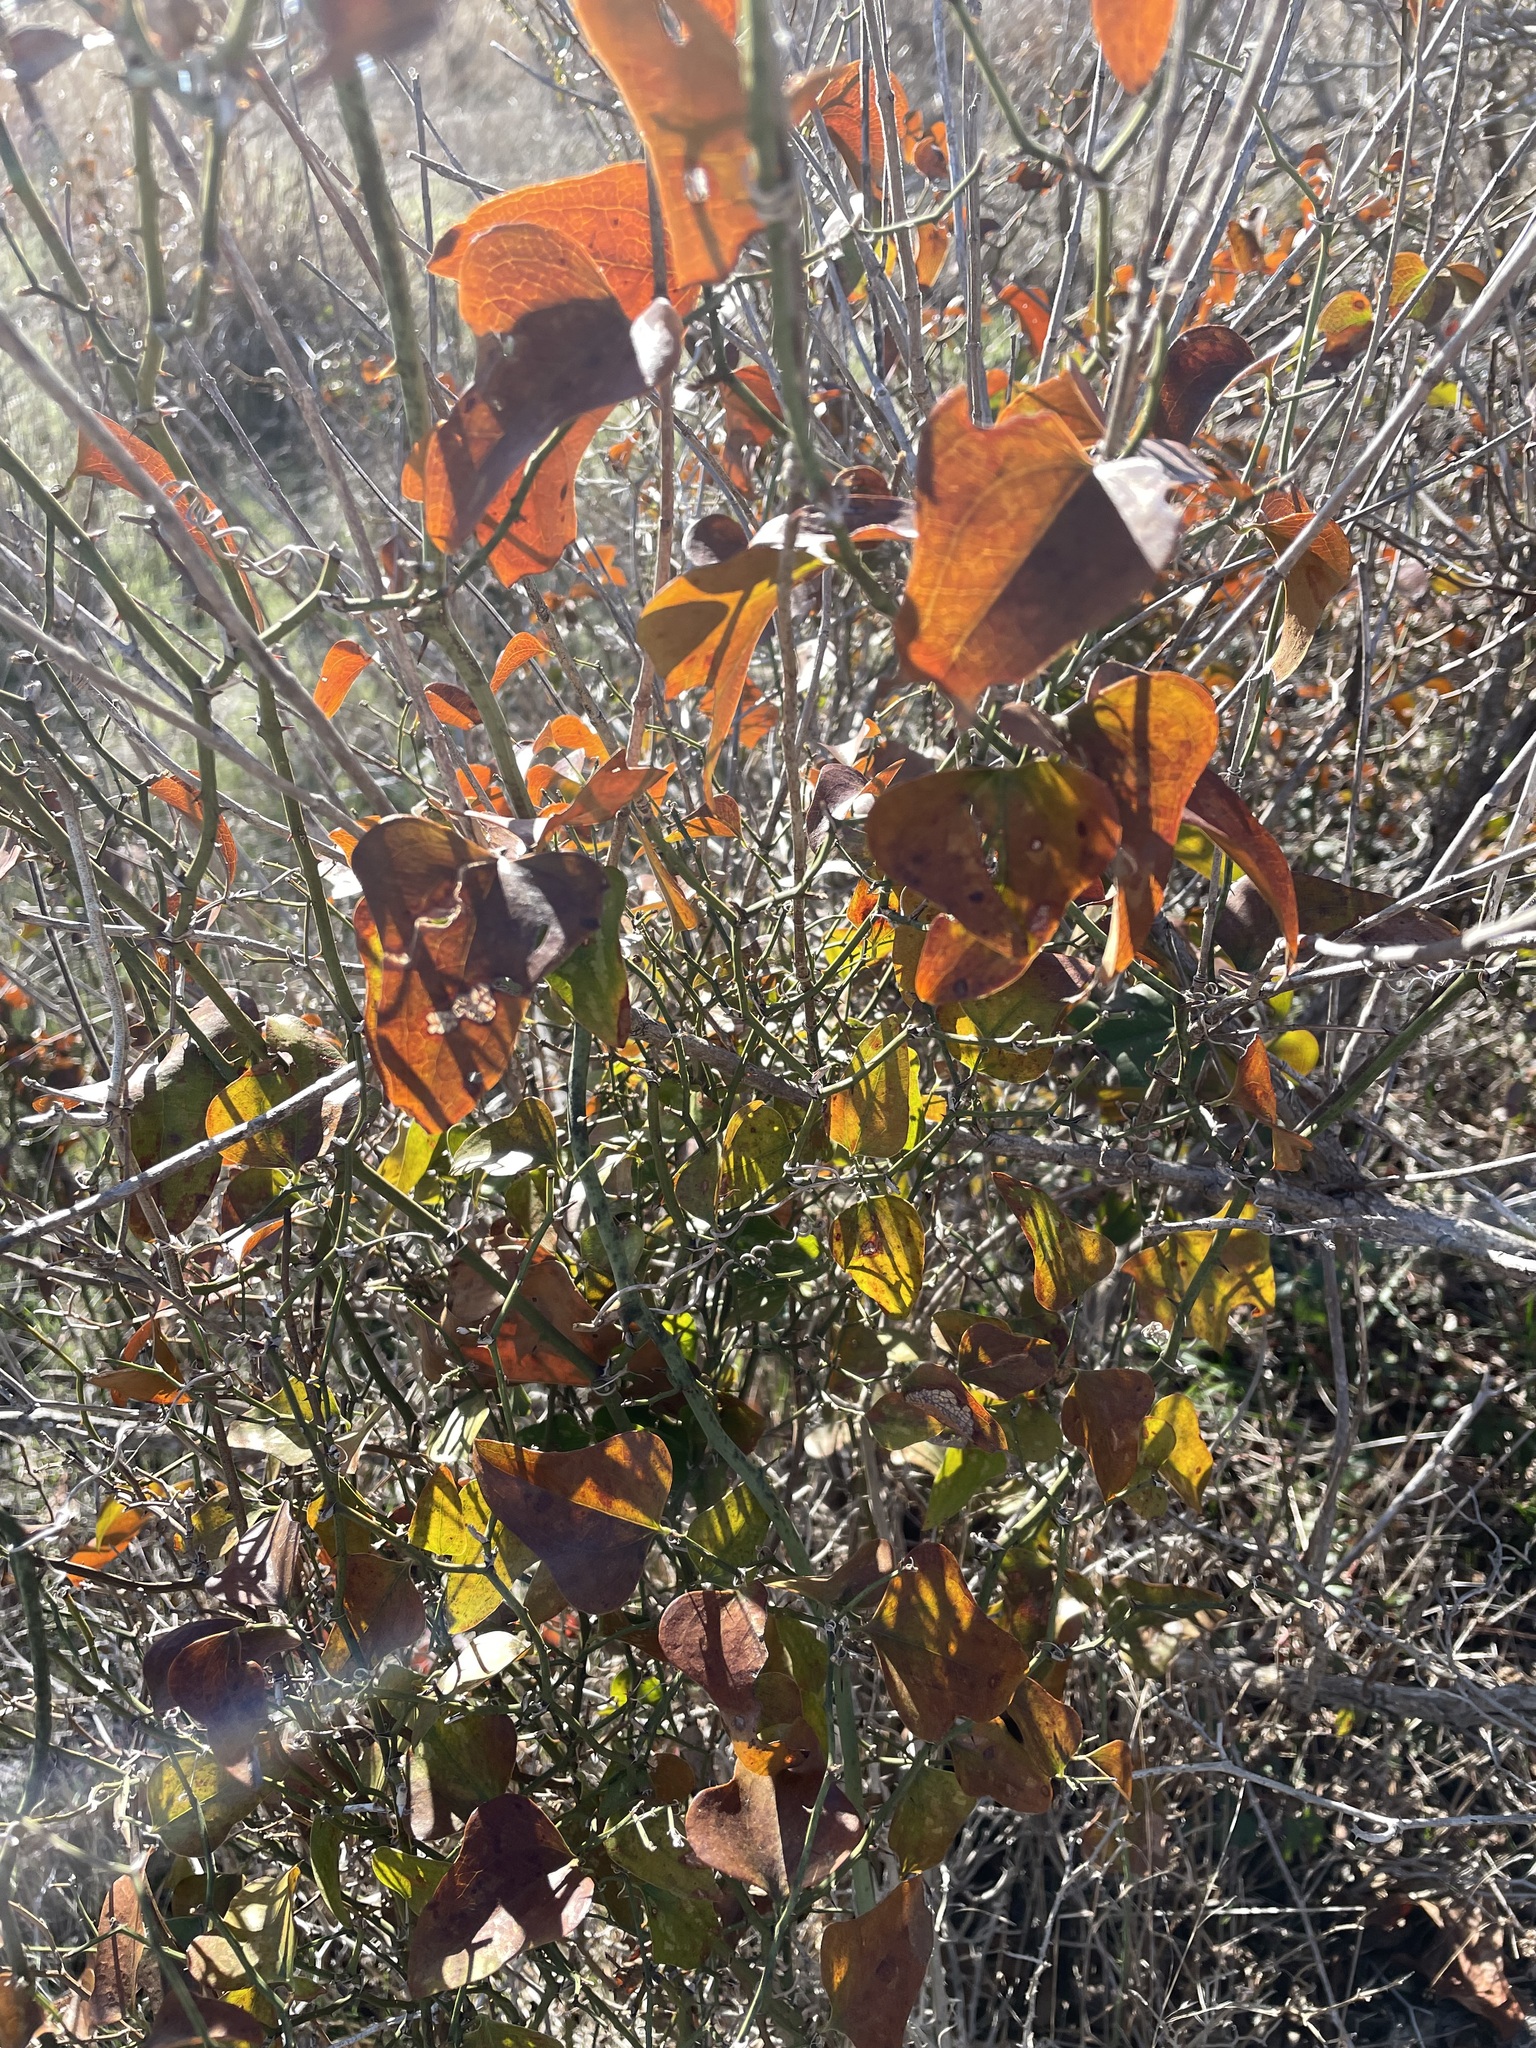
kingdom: Plantae
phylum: Tracheophyta
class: Liliopsida
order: Liliales
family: Smilacaceae
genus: Smilax
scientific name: Smilax bona-nox
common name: Catbrier
